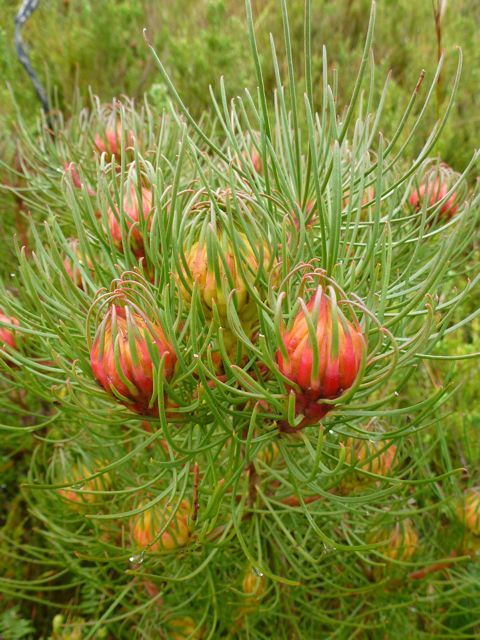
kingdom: Plantae
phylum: Tracheophyta
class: Magnoliopsida
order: Proteales
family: Proteaceae
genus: Aulax
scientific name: Aulax cancellata
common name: Channel-leaf featherbush
